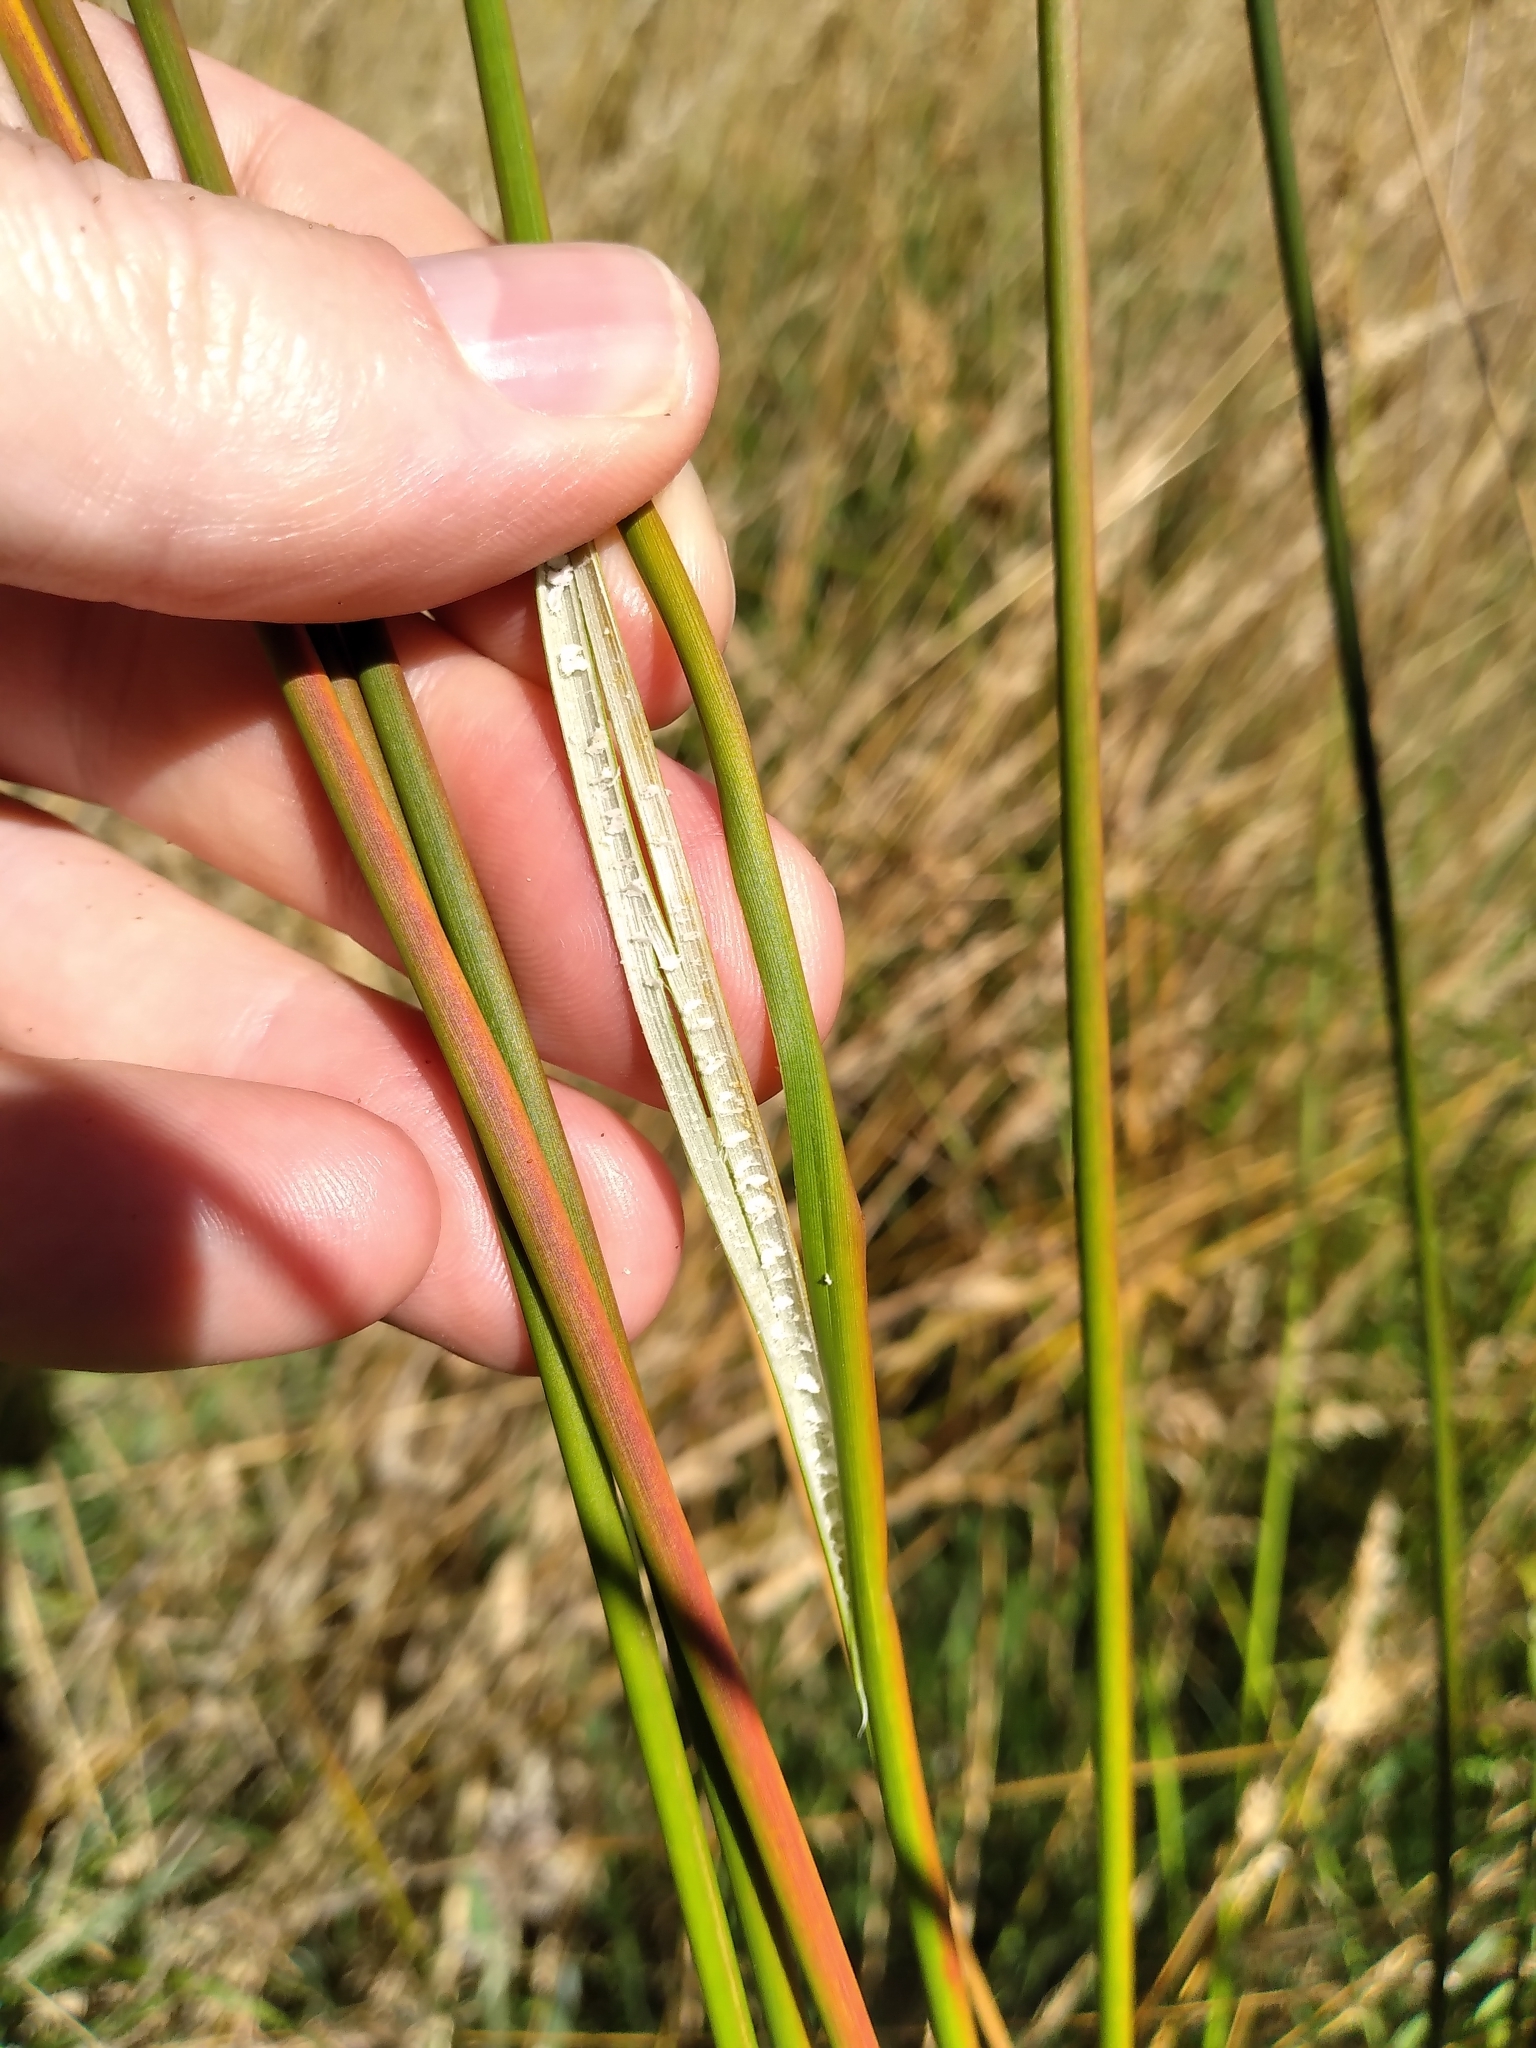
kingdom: Plantae
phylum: Tracheophyta
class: Liliopsida
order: Poales
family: Juncaceae
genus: Juncus
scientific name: Juncus australis
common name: Austral rush
